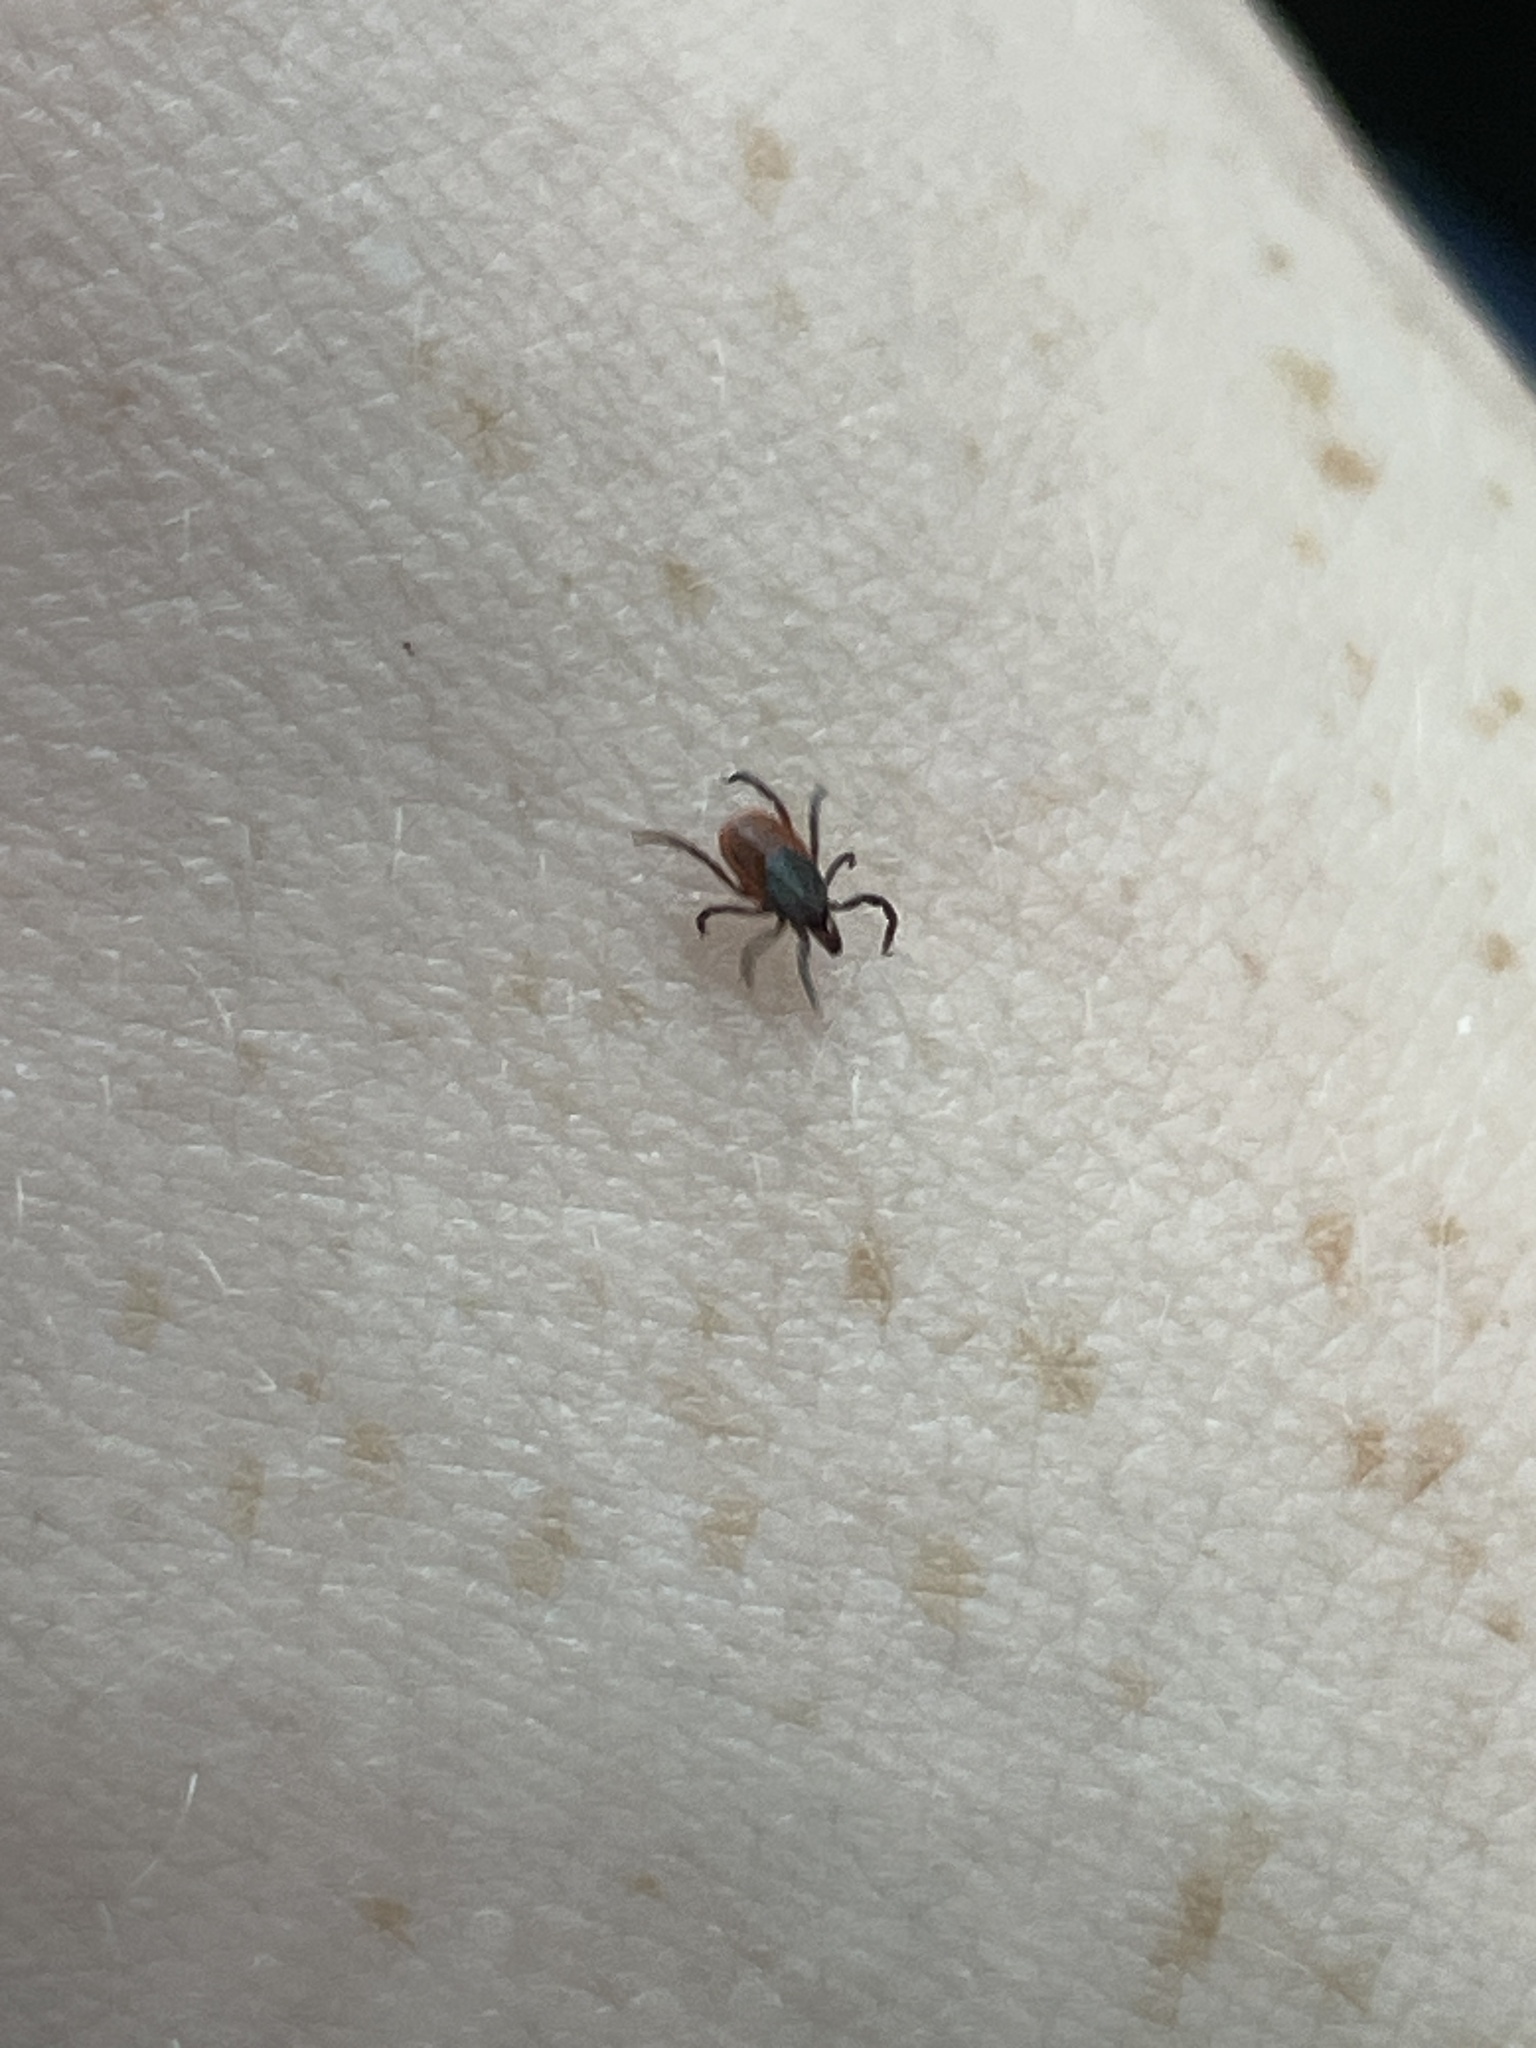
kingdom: Animalia
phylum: Arthropoda
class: Arachnida
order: Ixodida
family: Ixodidae
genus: Ixodes
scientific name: Ixodes scapularis
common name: Black legged tick
